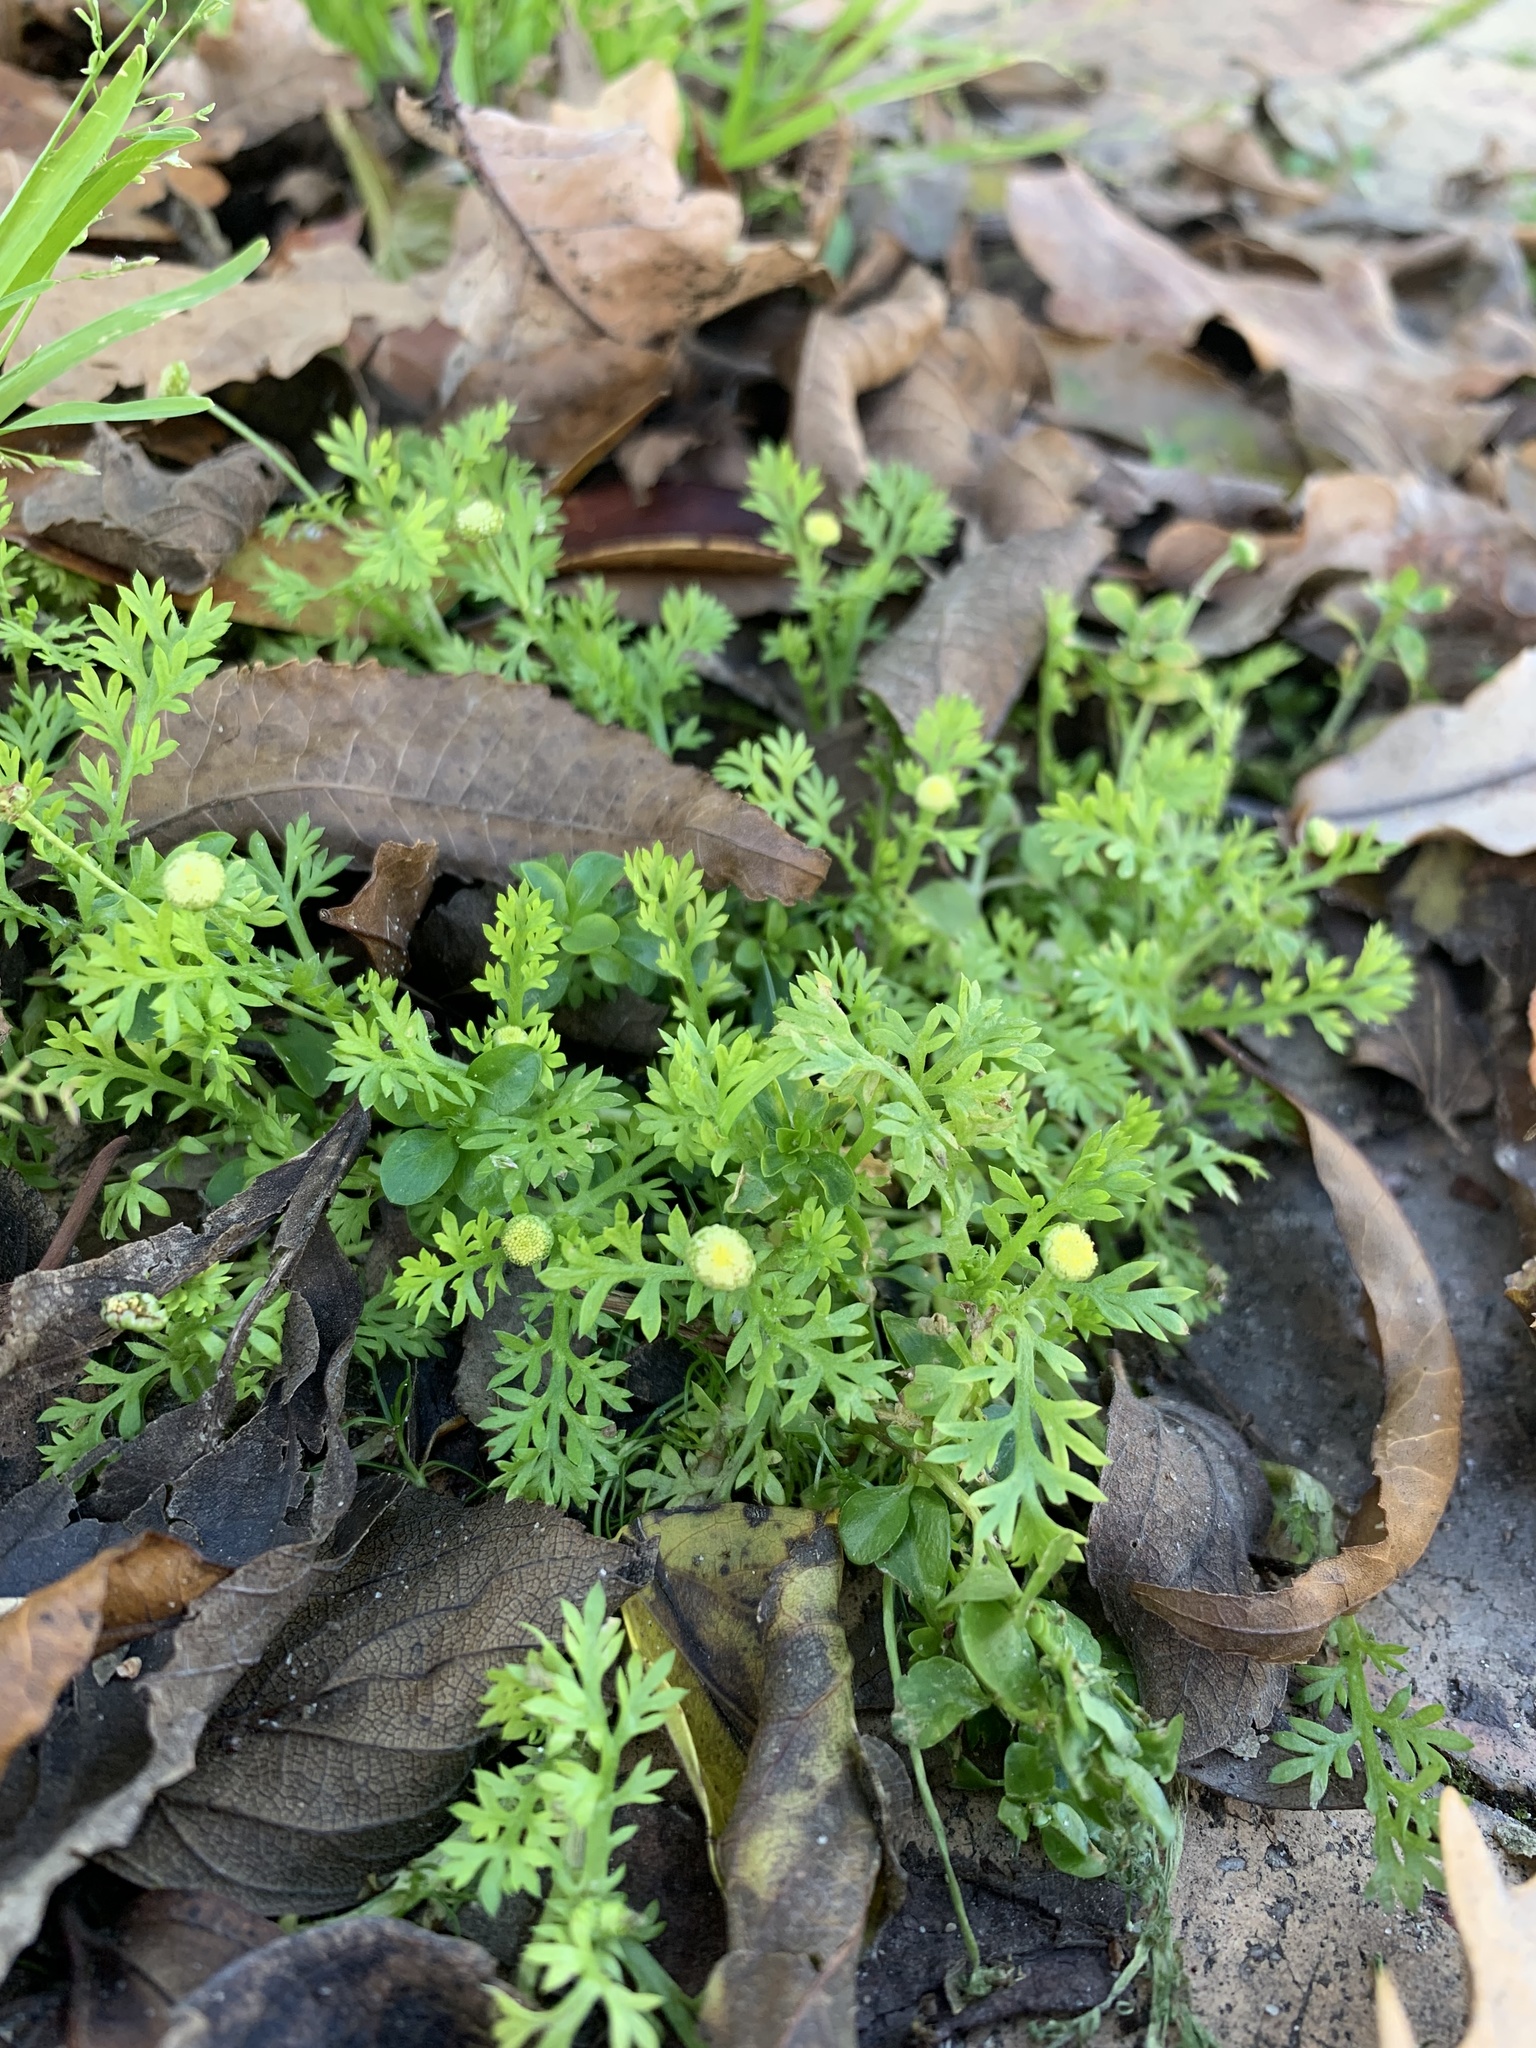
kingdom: Plantae
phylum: Tracheophyta
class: Magnoliopsida
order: Asterales
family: Asteraceae
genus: Cotula
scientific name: Cotula australis
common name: Australian waterbuttons
